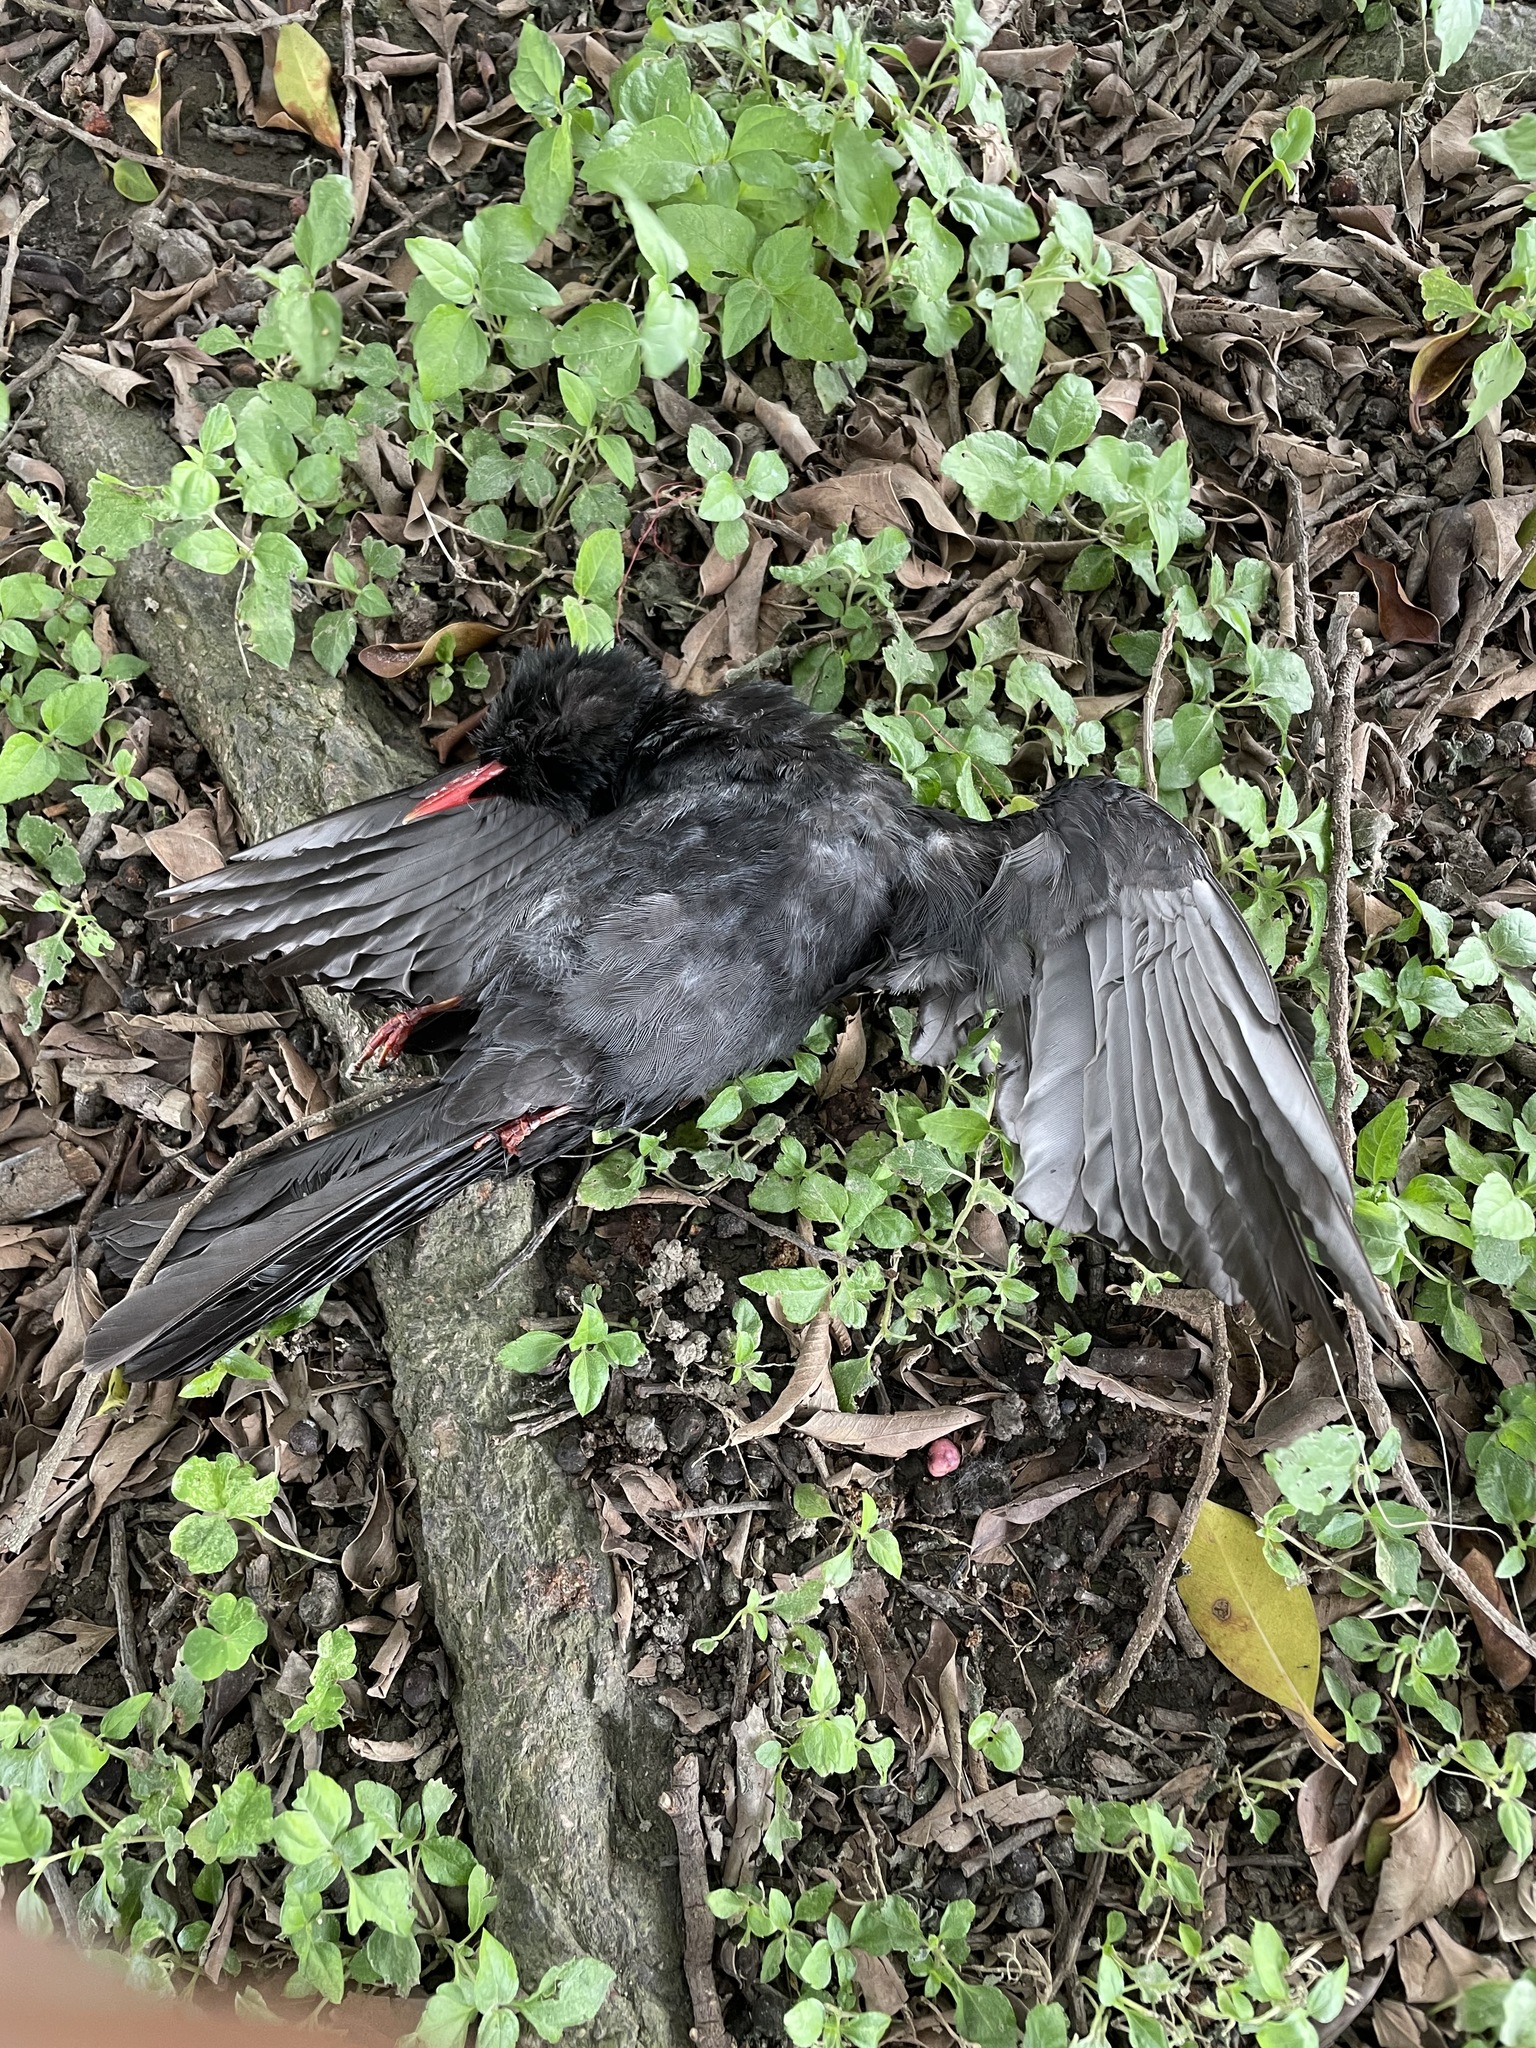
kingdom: Animalia
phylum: Chordata
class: Aves
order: Passeriformes
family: Pycnonotidae
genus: Hypsipetes
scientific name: Hypsipetes leucocephalus
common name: Black bulbul
